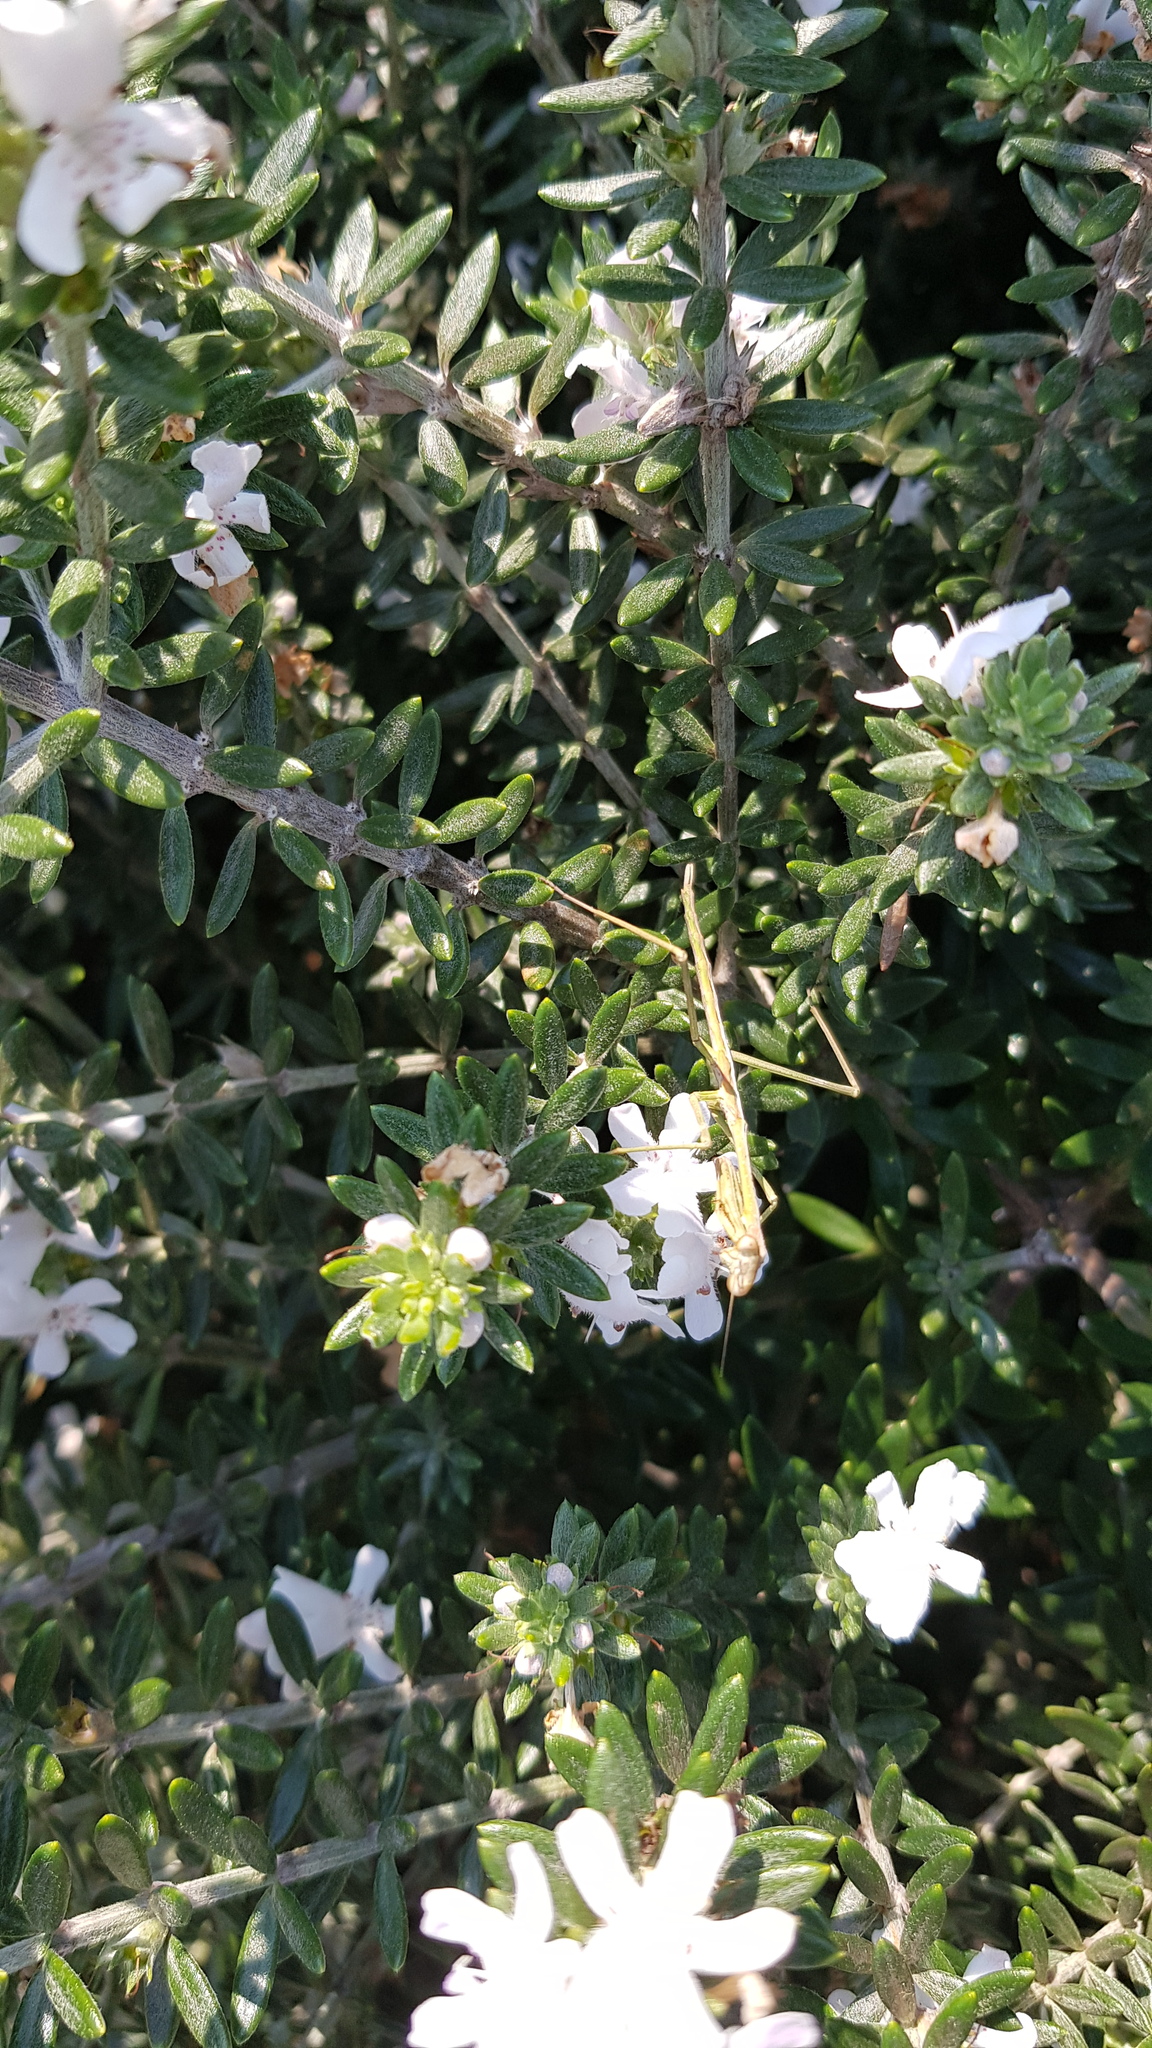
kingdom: Animalia
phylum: Arthropoda
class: Insecta
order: Mantodea
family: Mantidae
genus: Archimantis
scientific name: Archimantis latistyla
